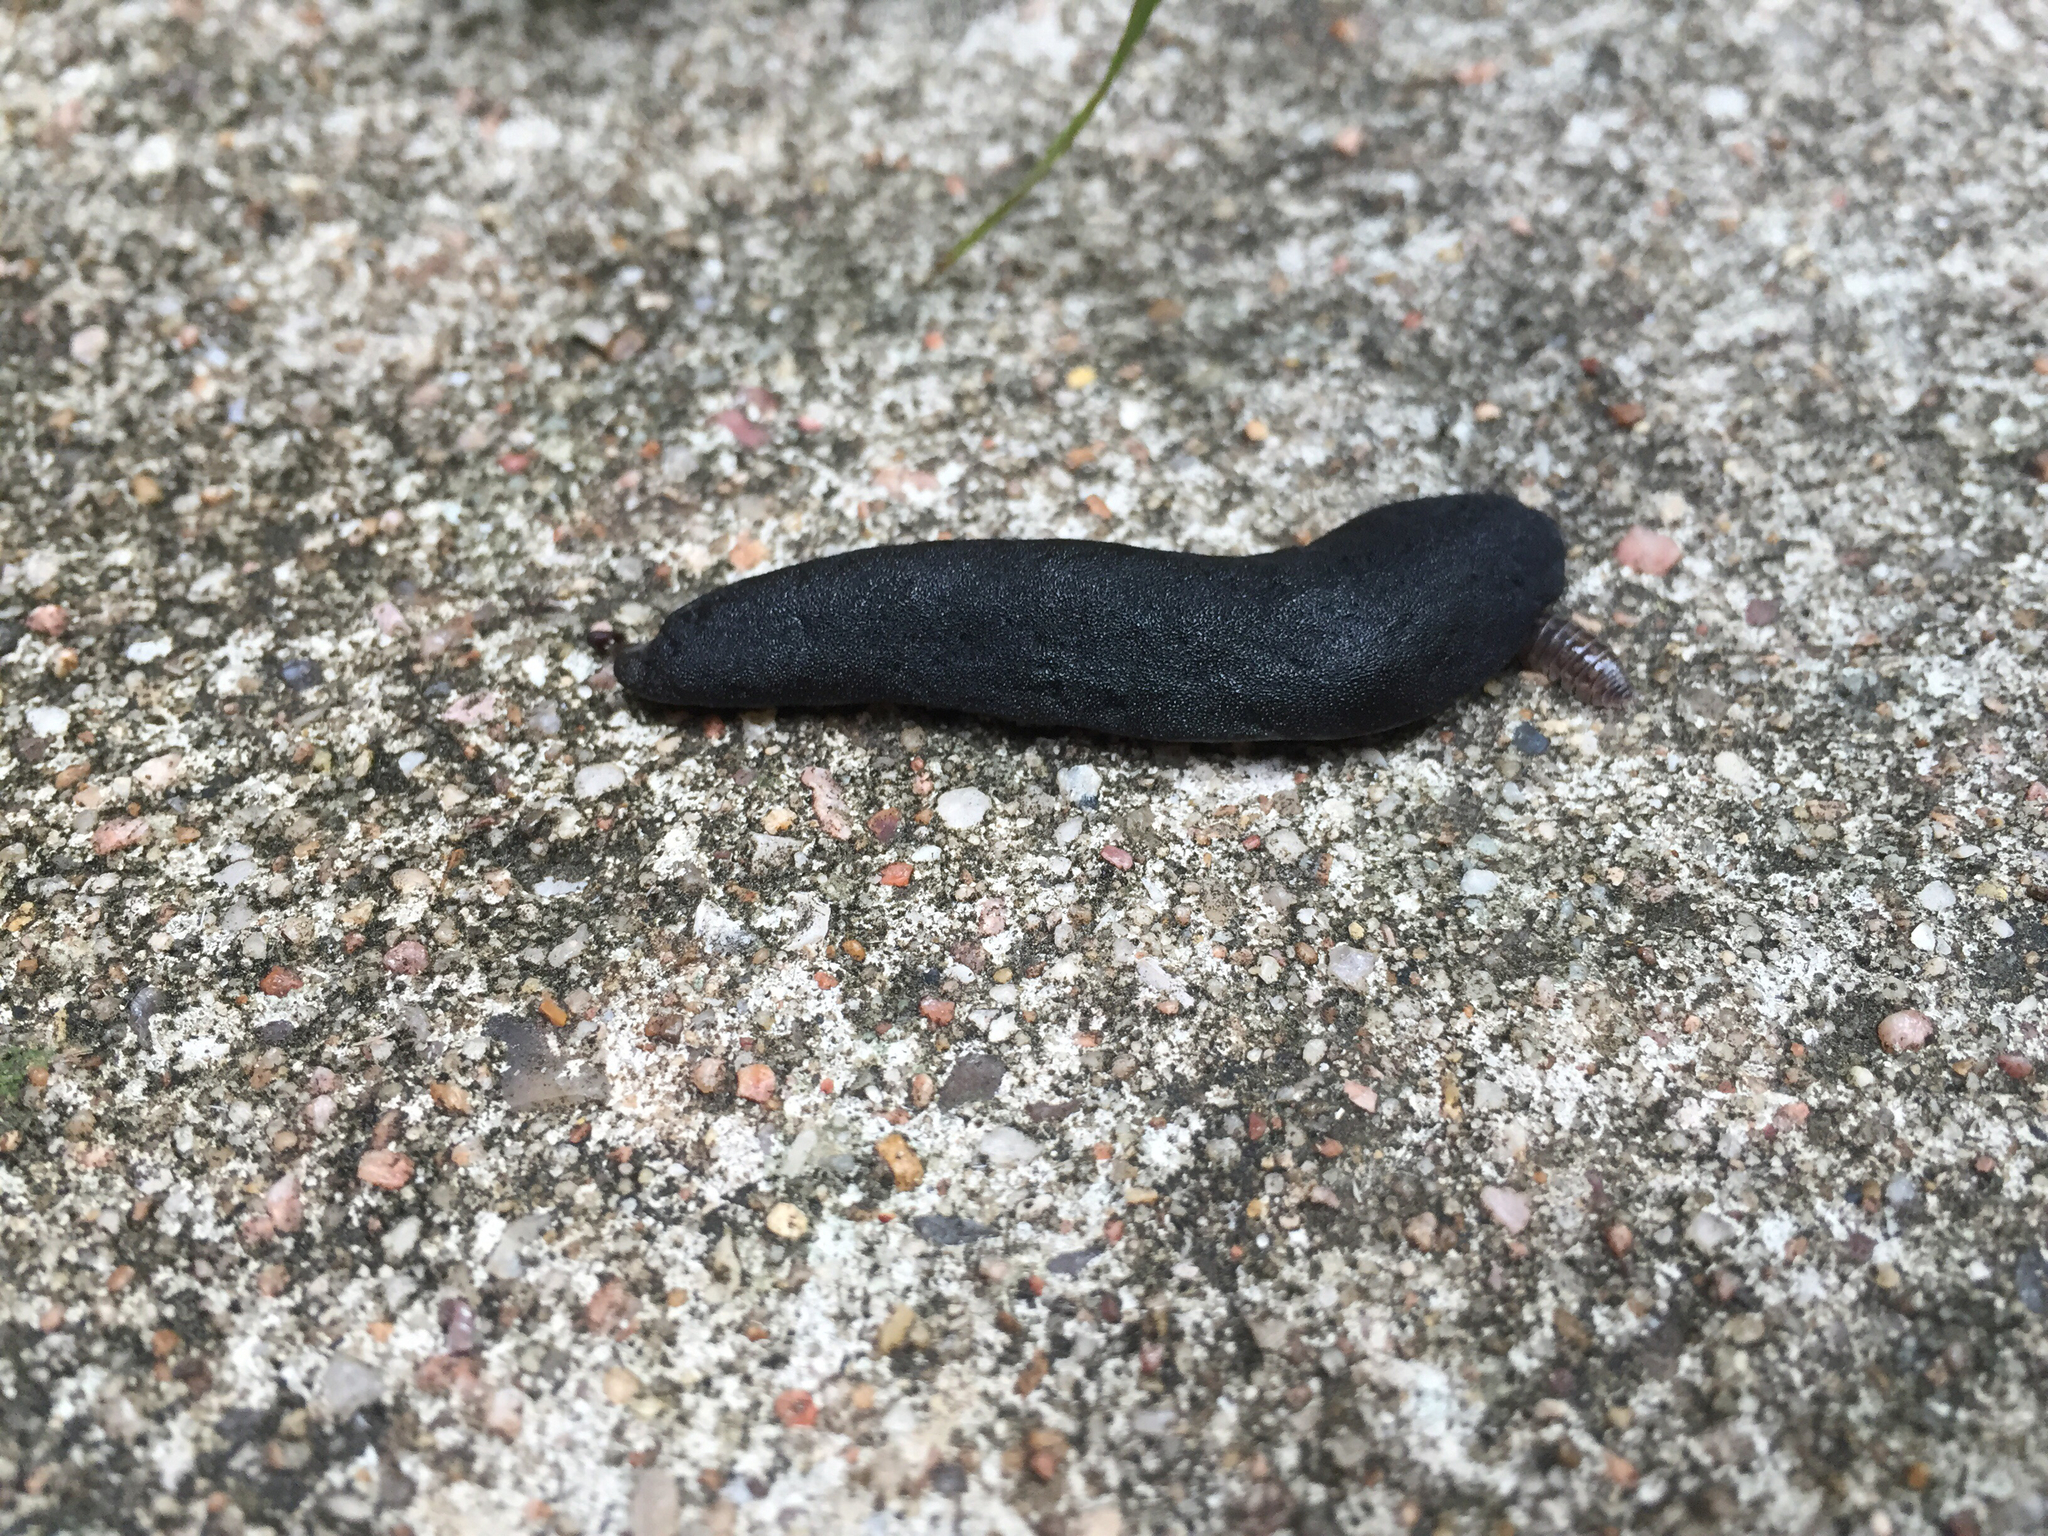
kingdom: Animalia
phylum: Mollusca
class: Gastropoda
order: Systellommatophora
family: Veronicellidae
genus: Belocaulus
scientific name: Belocaulus angustipes
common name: Black velvet leatherleaf slug
